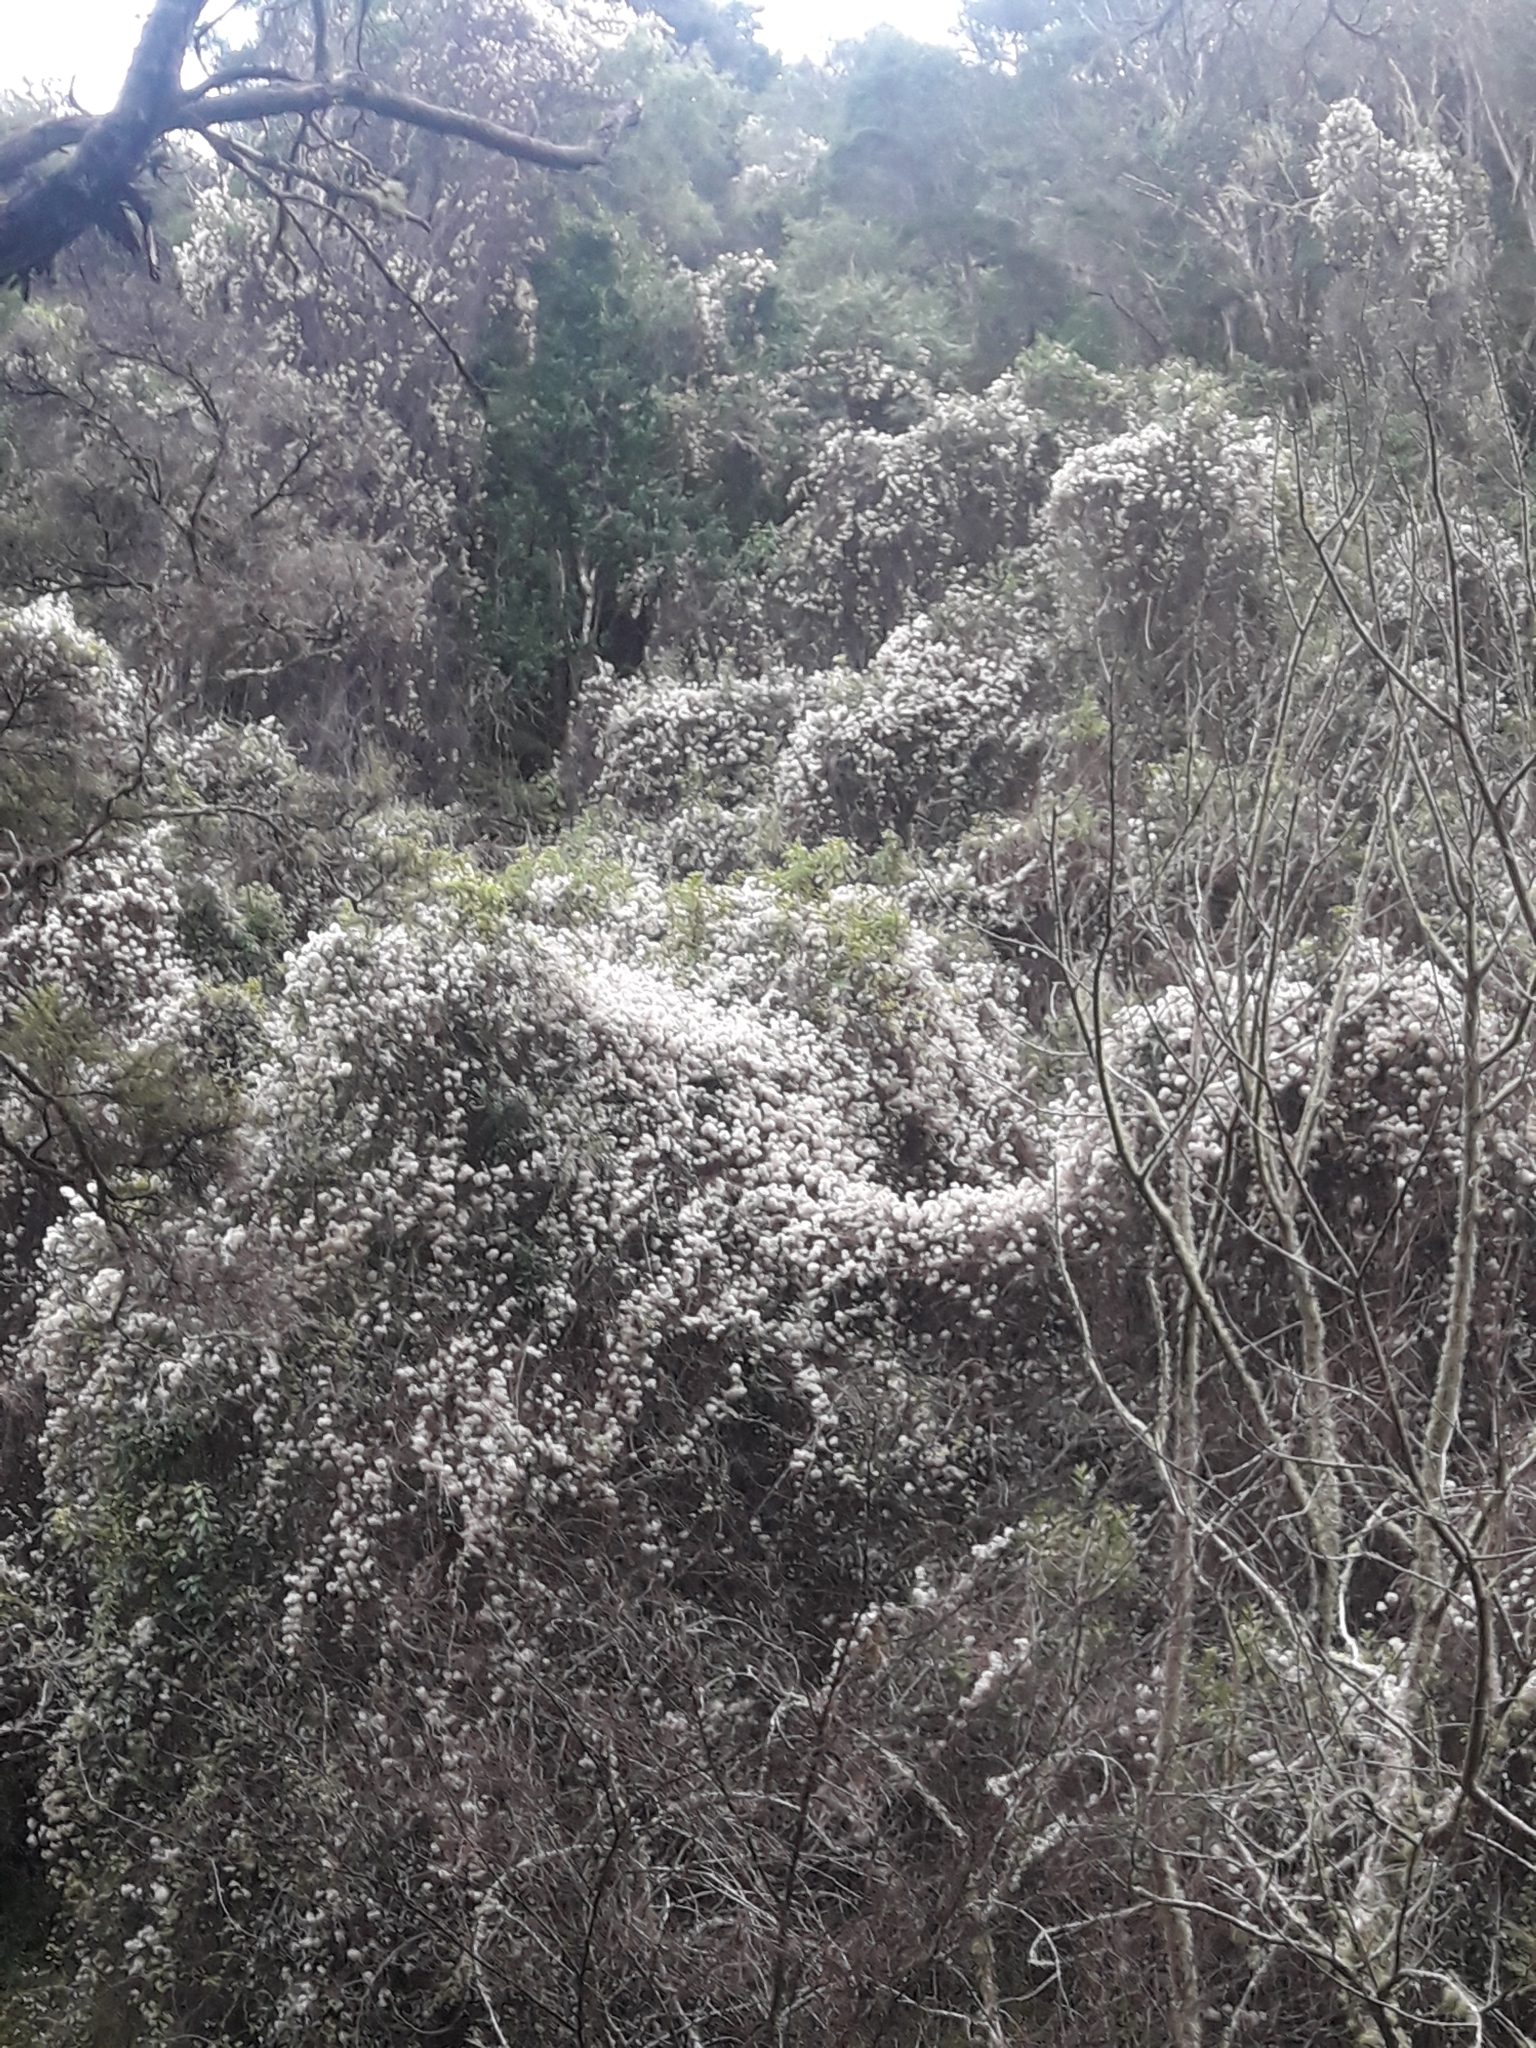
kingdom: Plantae
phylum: Tracheophyta
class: Magnoliopsida
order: Ranunculales
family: Ranunculaceae
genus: Clematis
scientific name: Clematis vitalba
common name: Evergreen clematis
